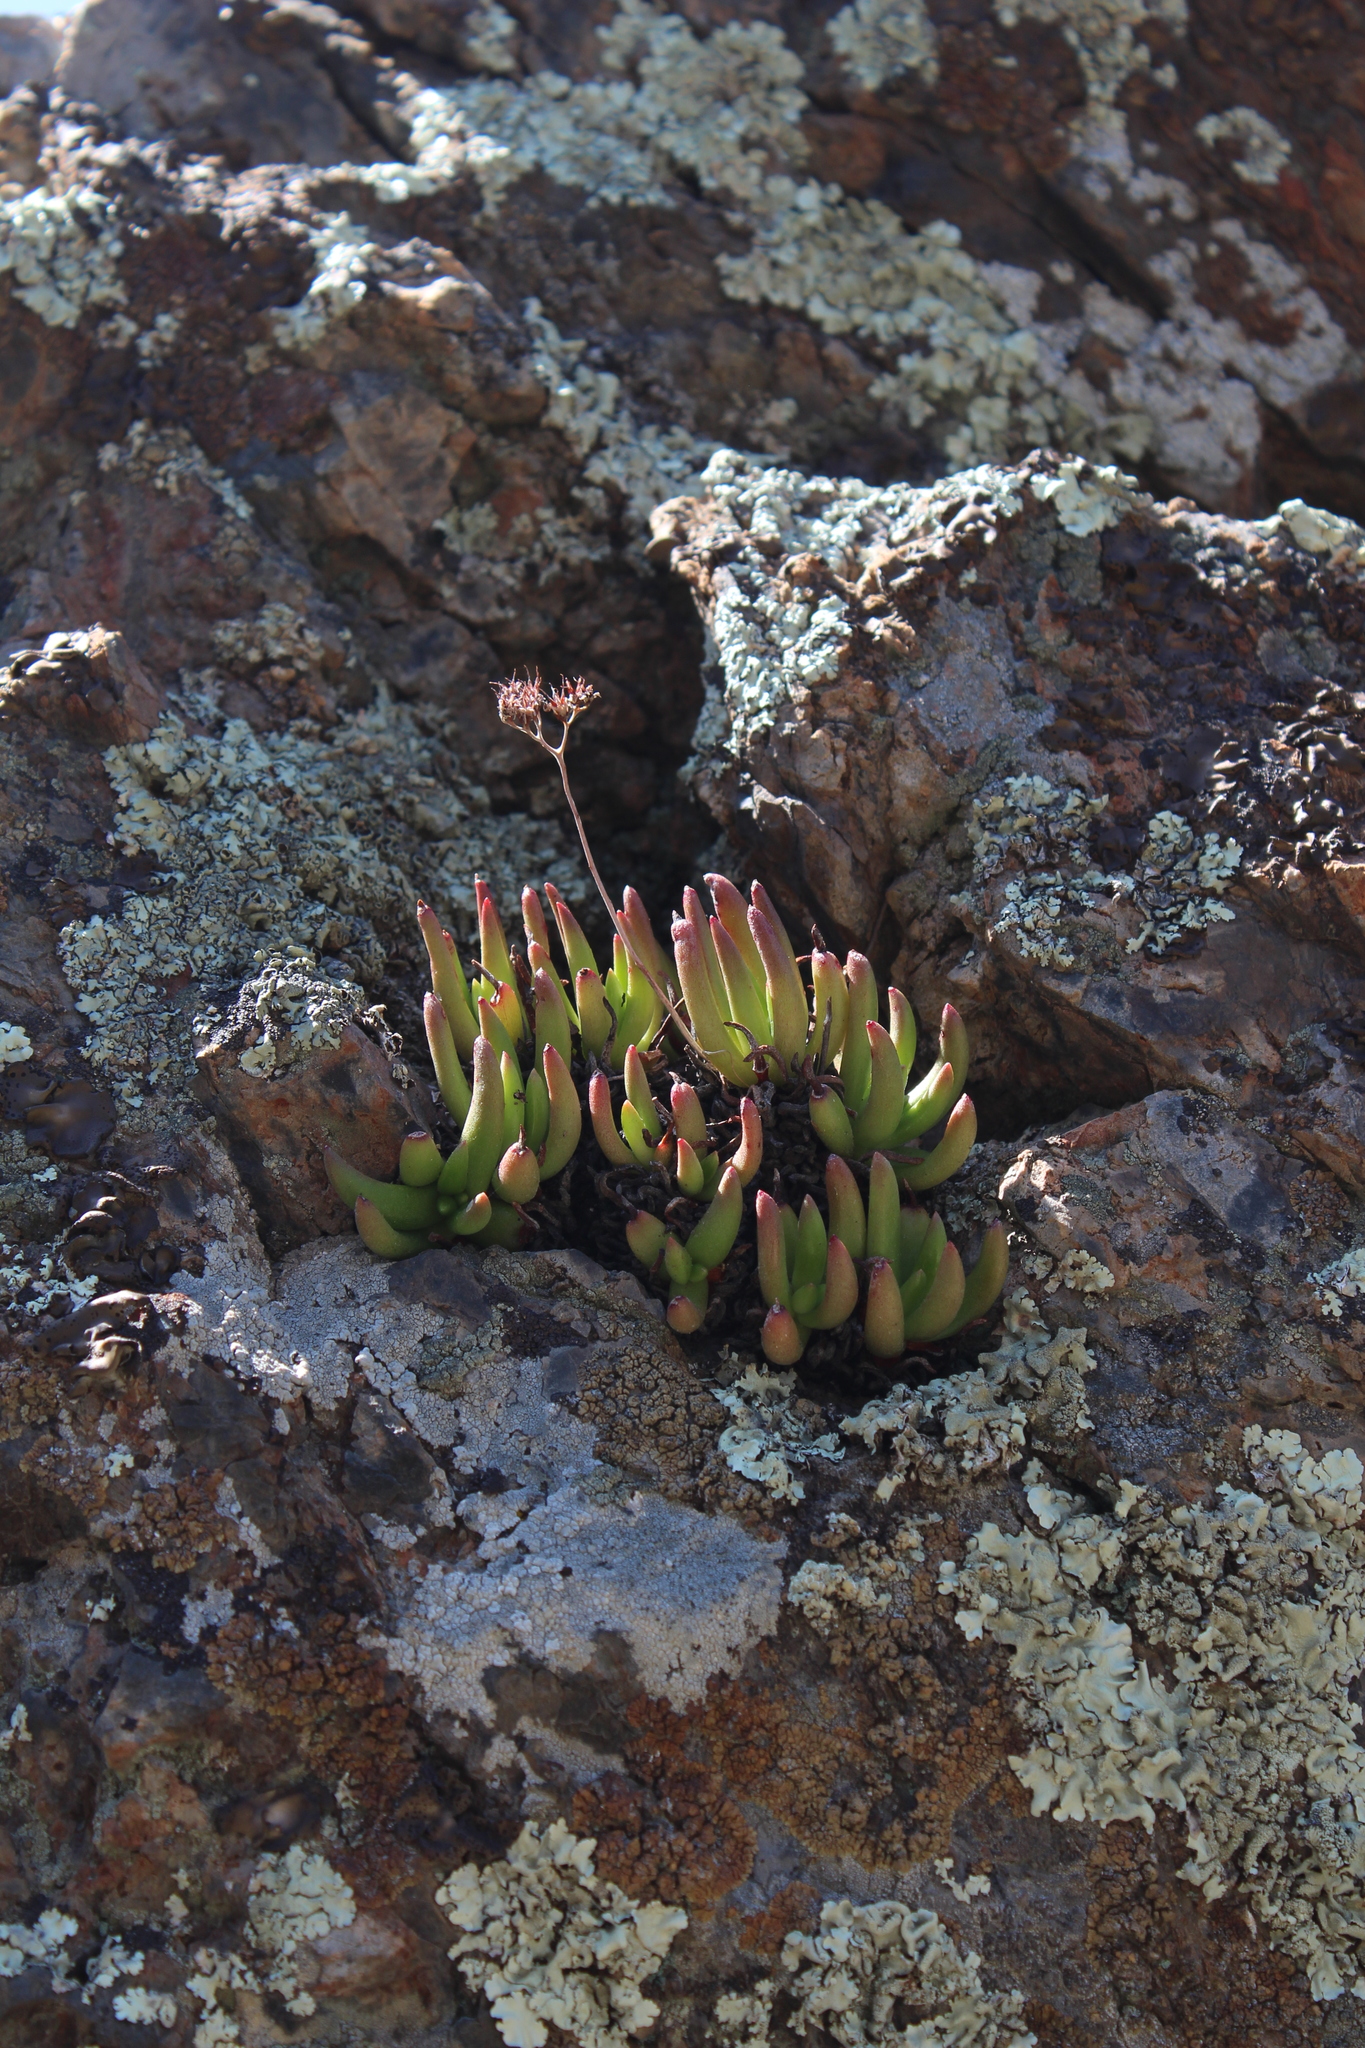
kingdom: Plantae
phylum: Tracheophyta
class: Magnoliopsida
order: Saxifragales
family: Crassulaceae
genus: Dudleya
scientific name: Dudleya viscida
